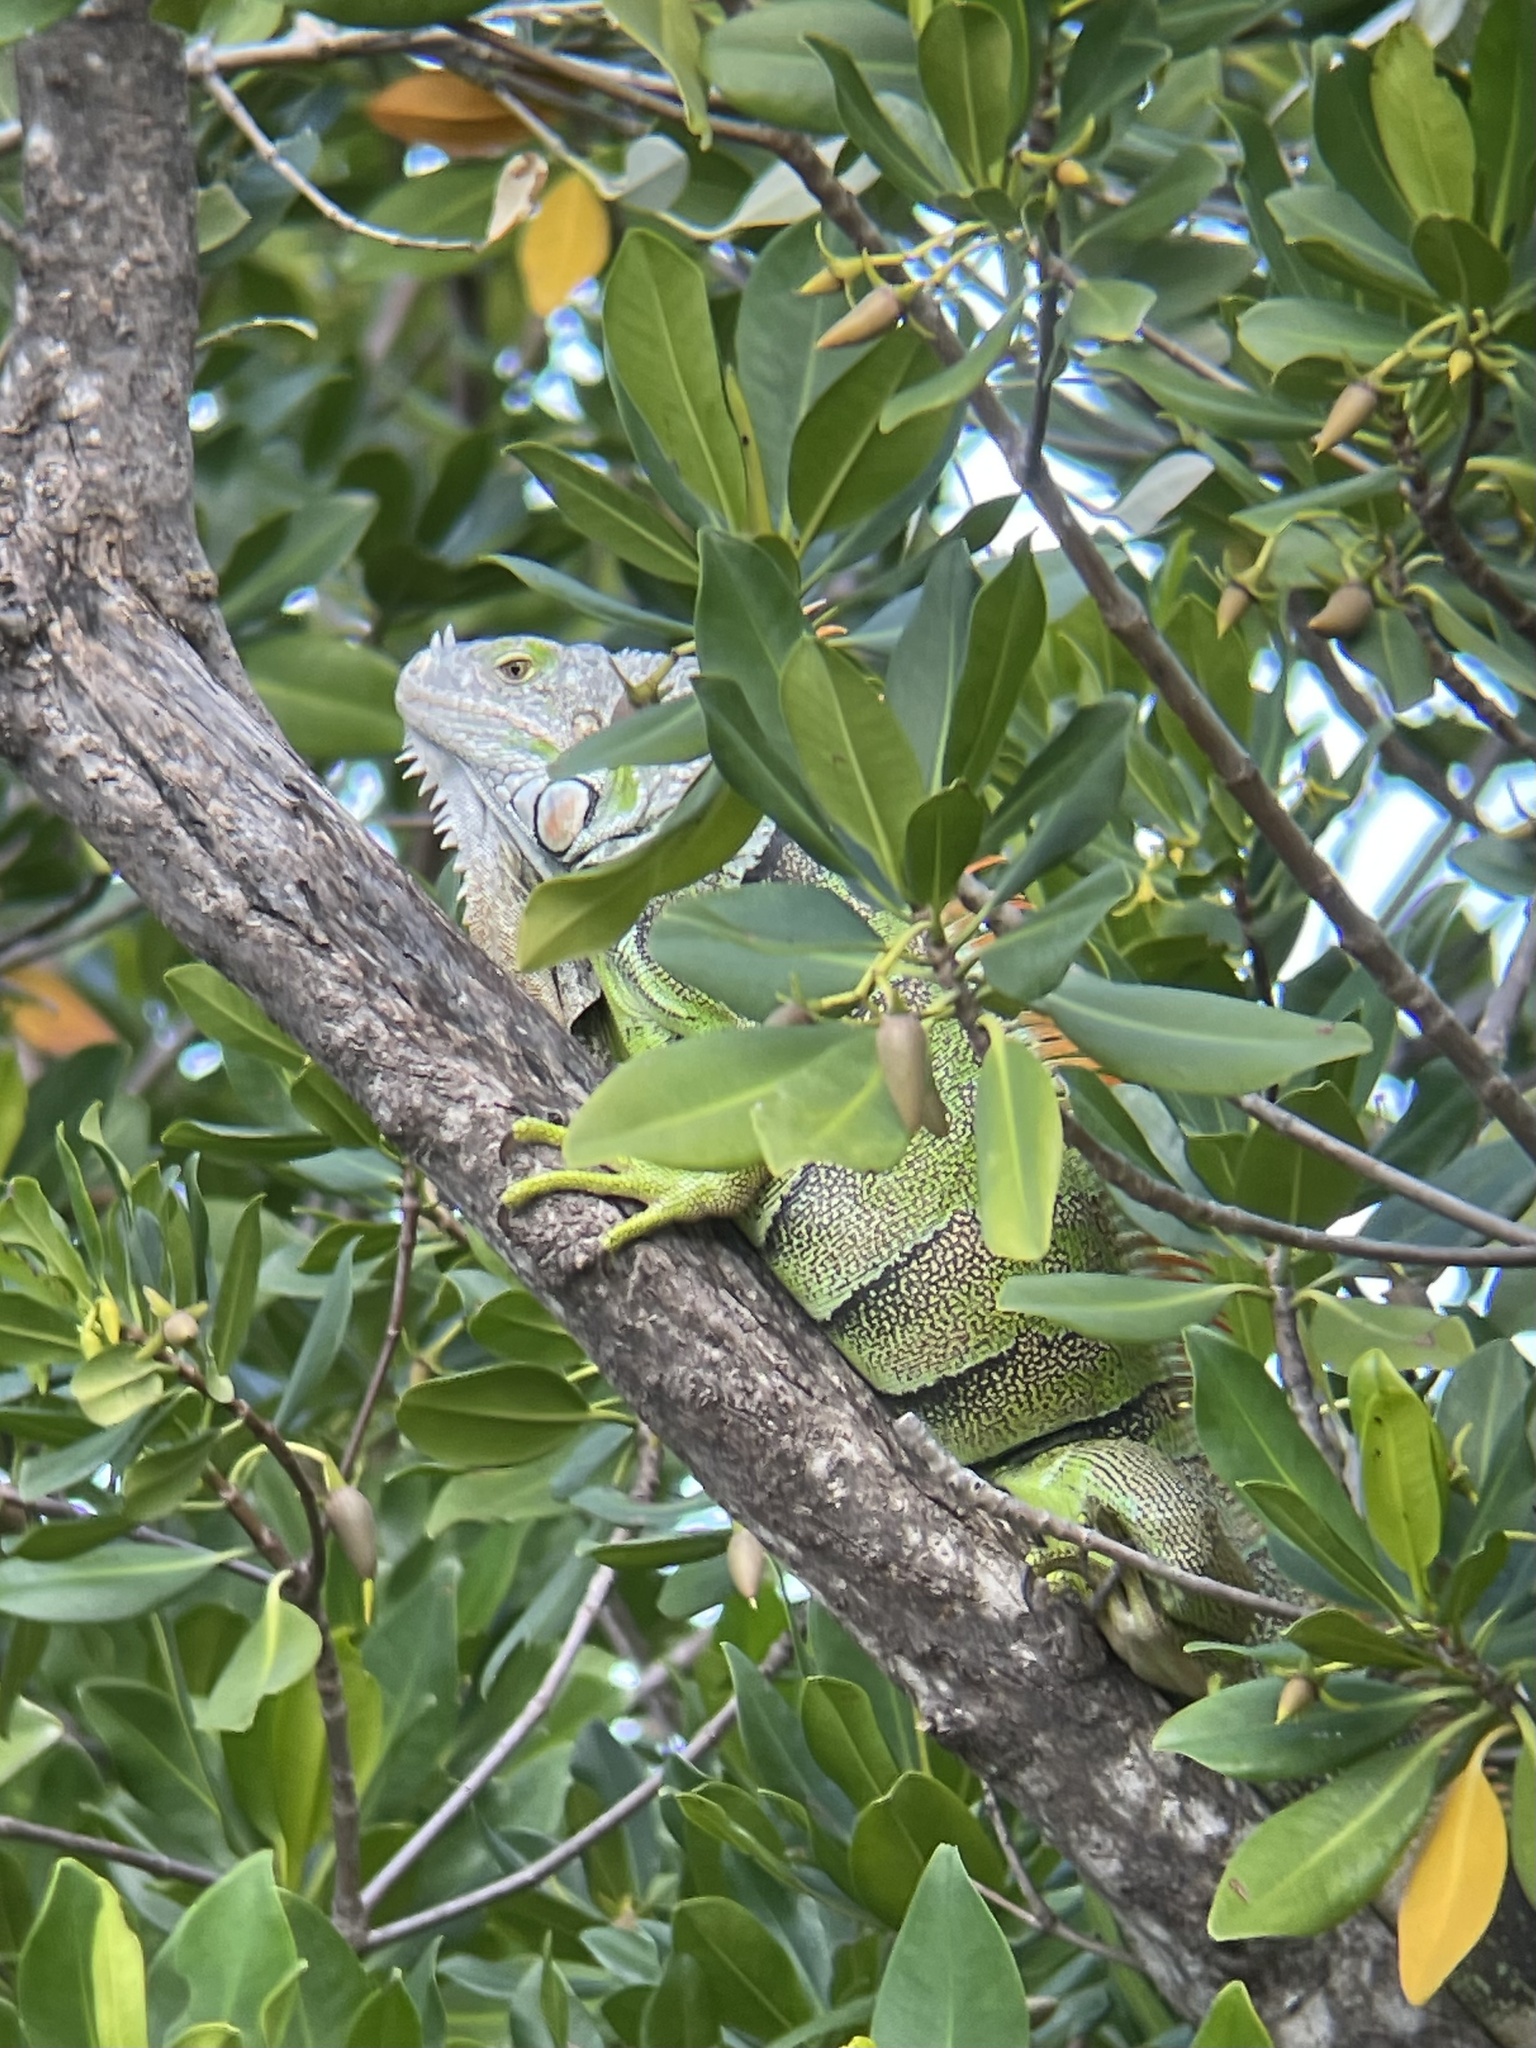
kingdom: Animalia
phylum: Chordata
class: Squamata
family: Iguanidae
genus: Iguana
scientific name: Iguana iguana
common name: Green iguana
